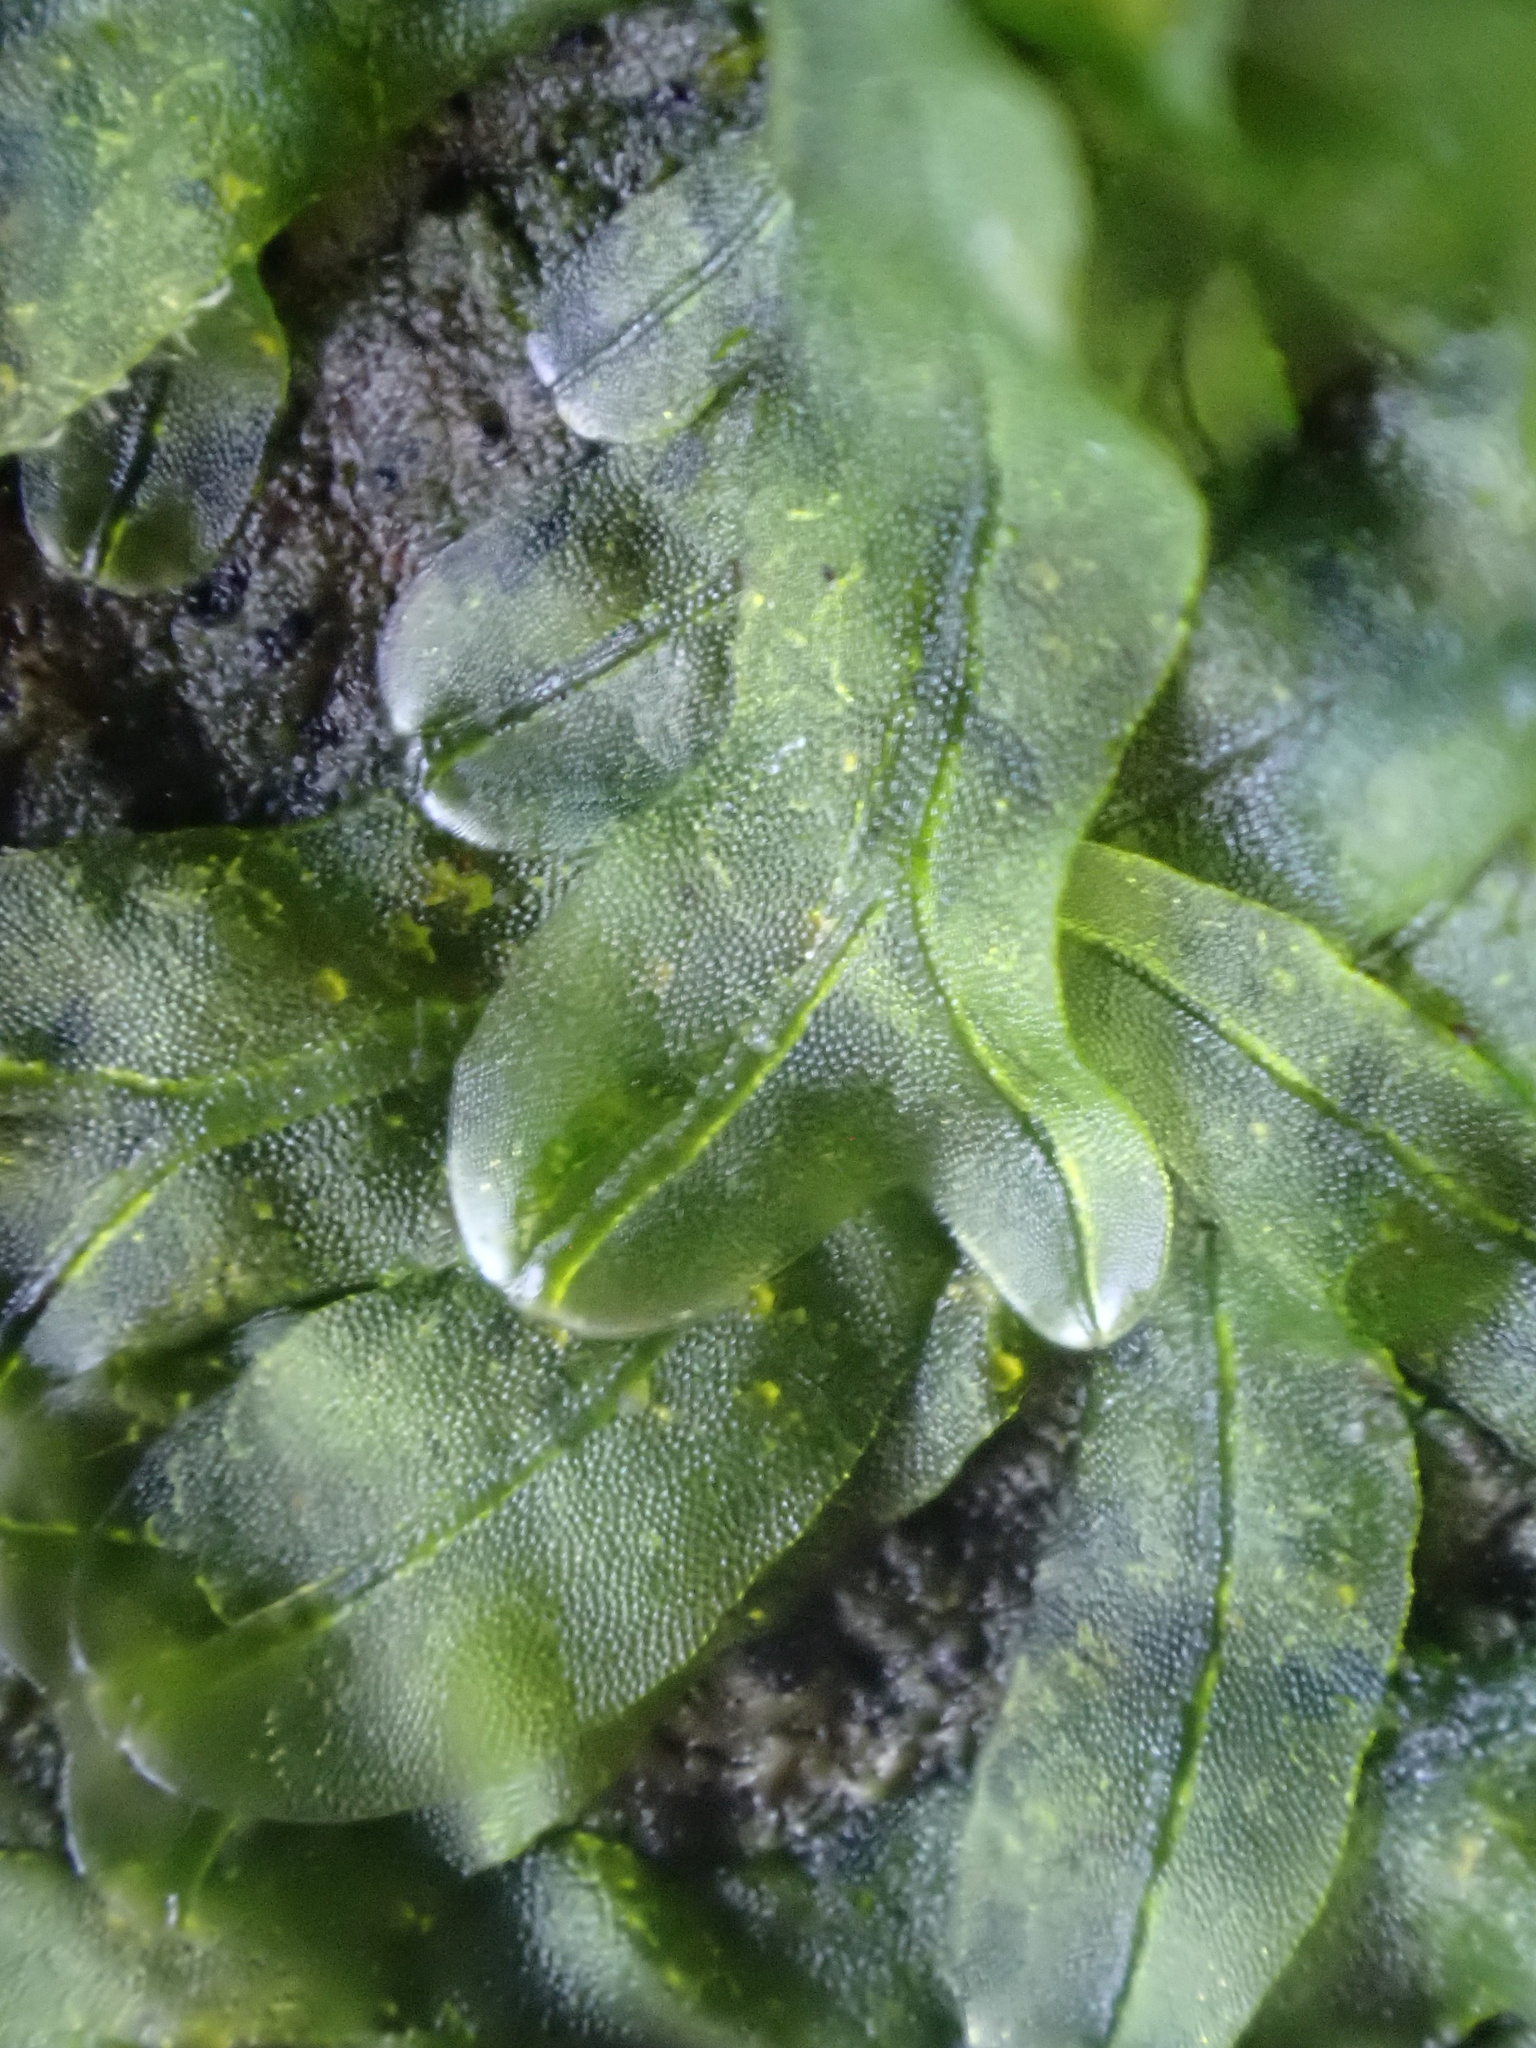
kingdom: Plantae
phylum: Marchantiophyta
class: Jungermanniopsida
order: Metzgeriales
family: Metzgeriaceae
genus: Metzgeria
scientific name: Metzgeria furcata
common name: Forked veilwort
